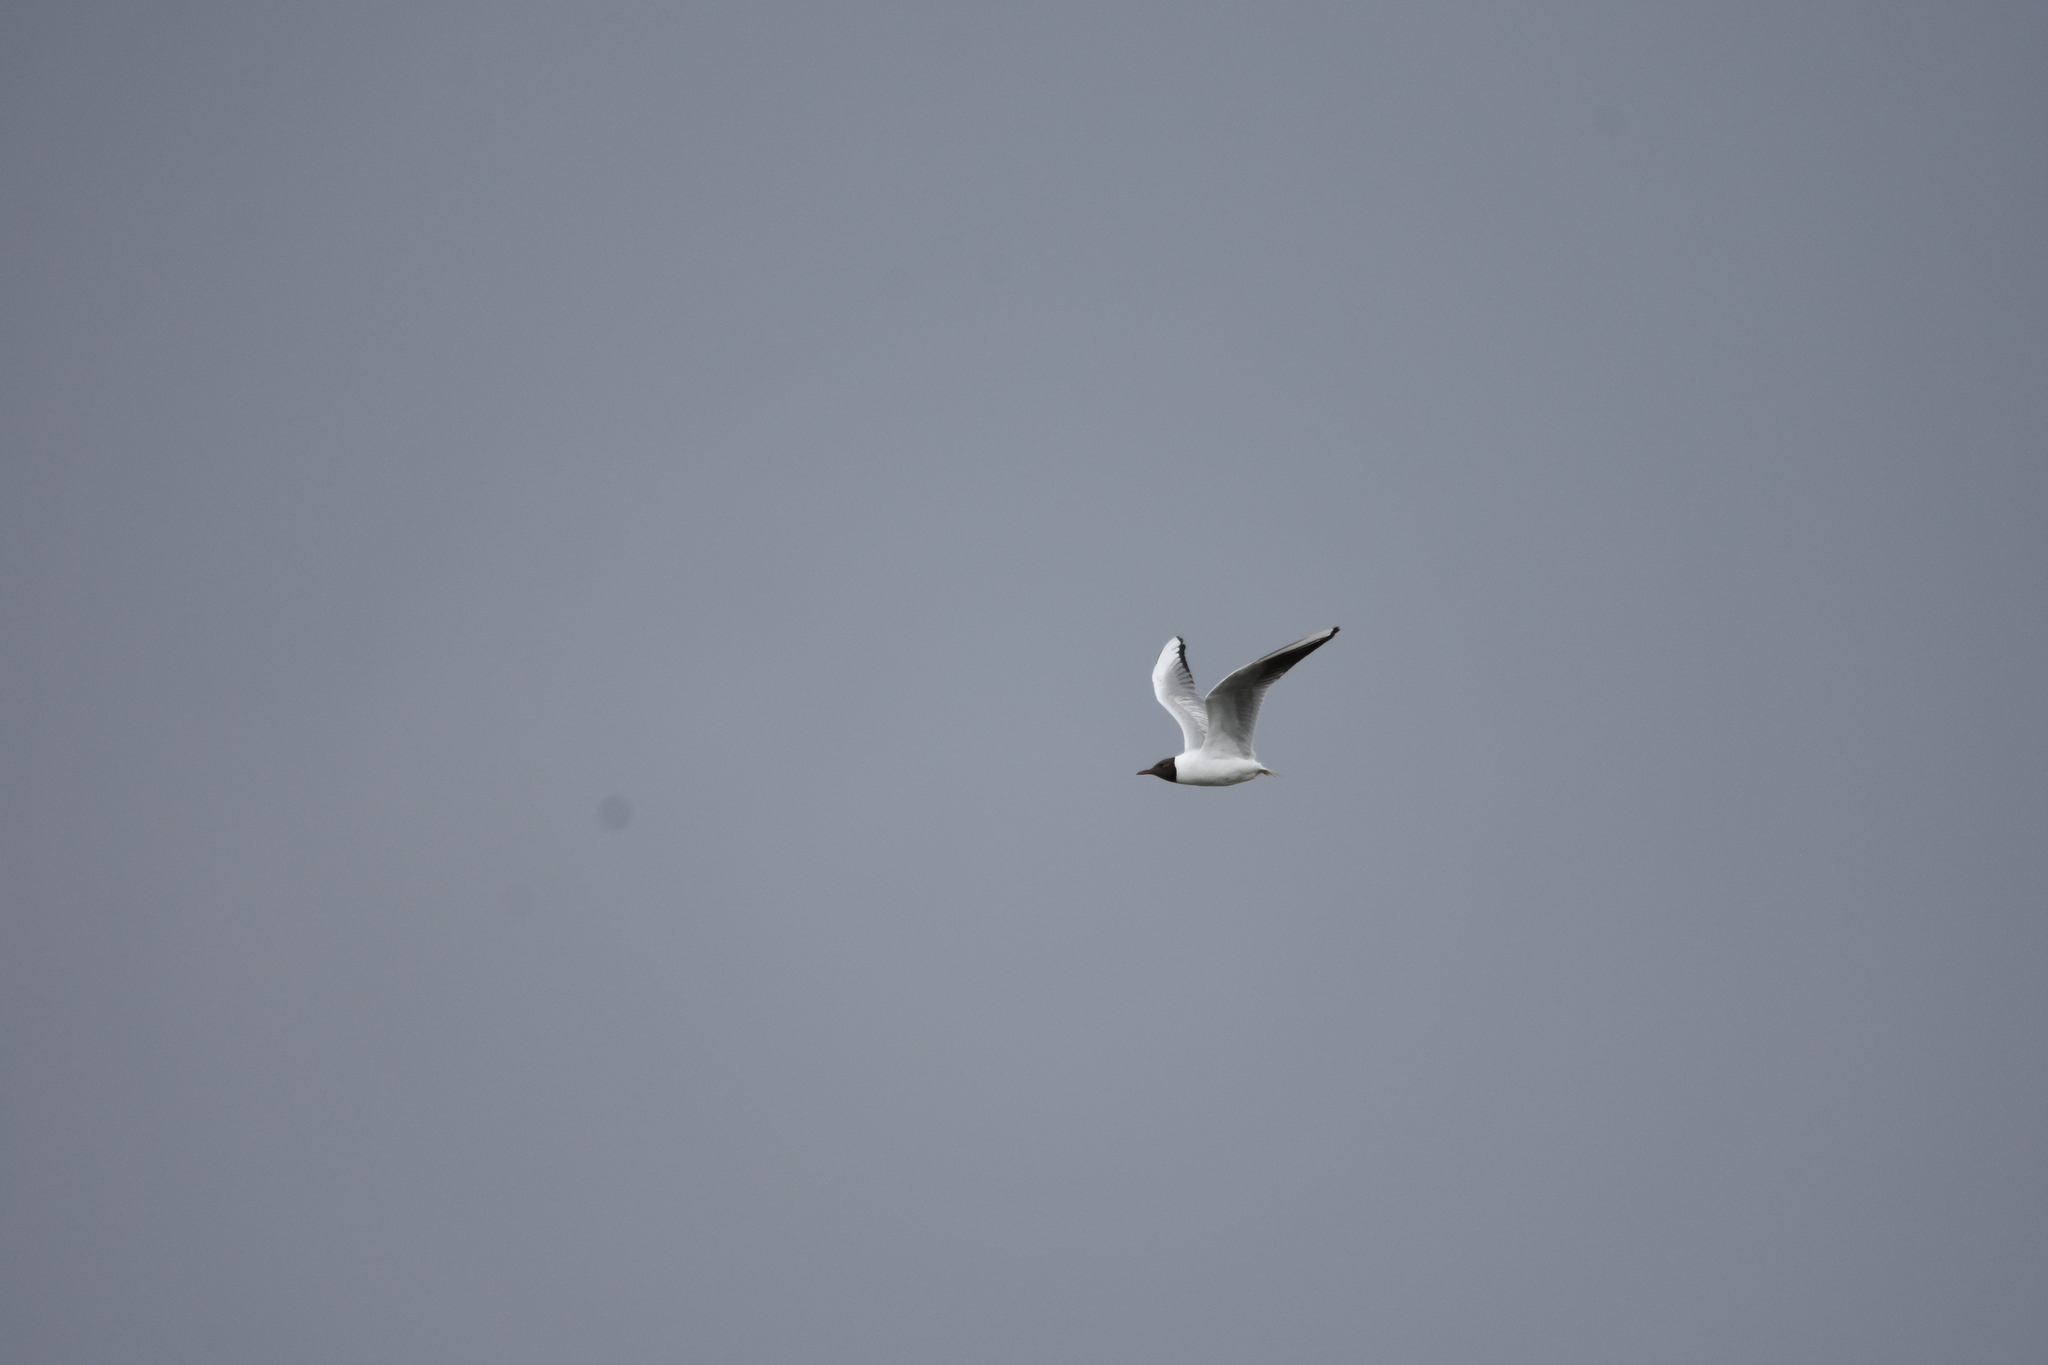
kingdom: Animalia
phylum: Chordata
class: Aves
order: Charadriiformes
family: Laridae
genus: Chroicocephalus
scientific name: Chroicocephalus ridibundus
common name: Black-headed gull
